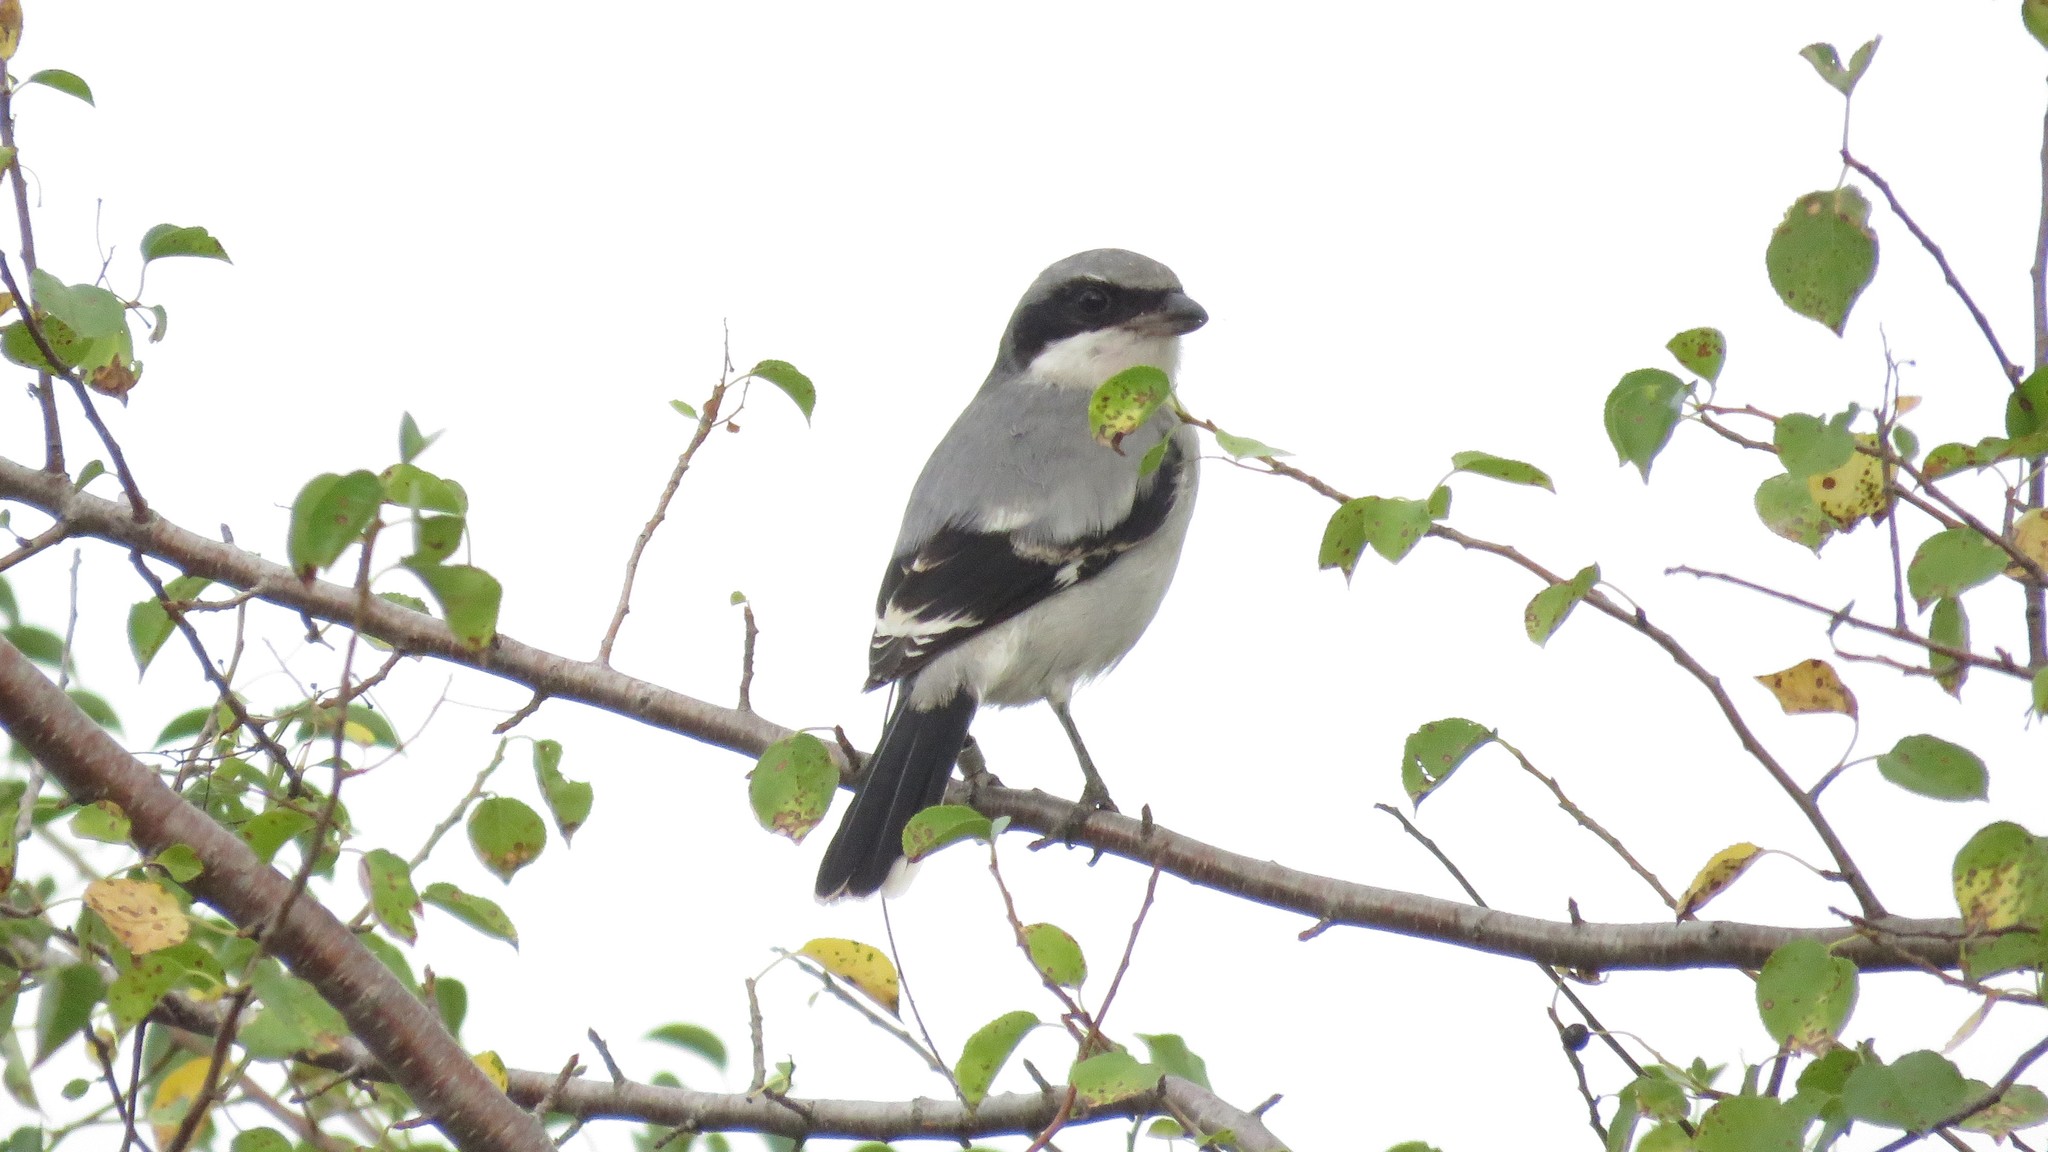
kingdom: Animalia
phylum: Chordata
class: Aves
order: Passeriformes
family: Laniidae
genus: Lanius
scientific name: Lanius ludovicianus
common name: Loggerhead shrike
